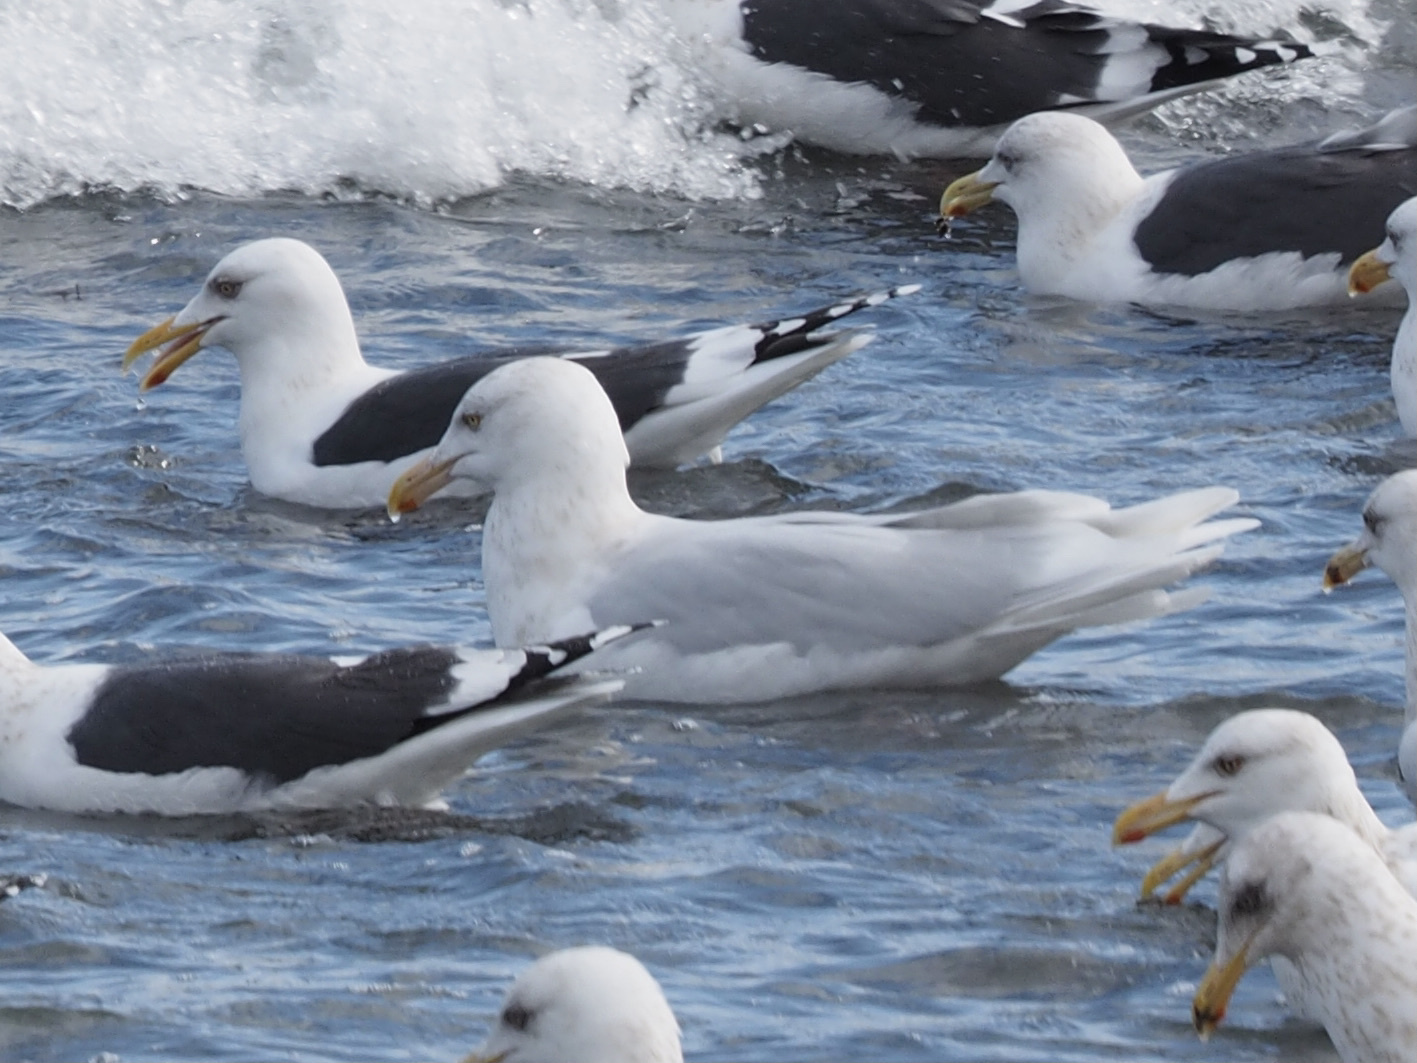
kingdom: Animalia
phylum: Chordata
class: Aves
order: Charadriiformes
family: Laridae
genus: Larus
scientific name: Larus hyperboreus
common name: Glaucous gull
